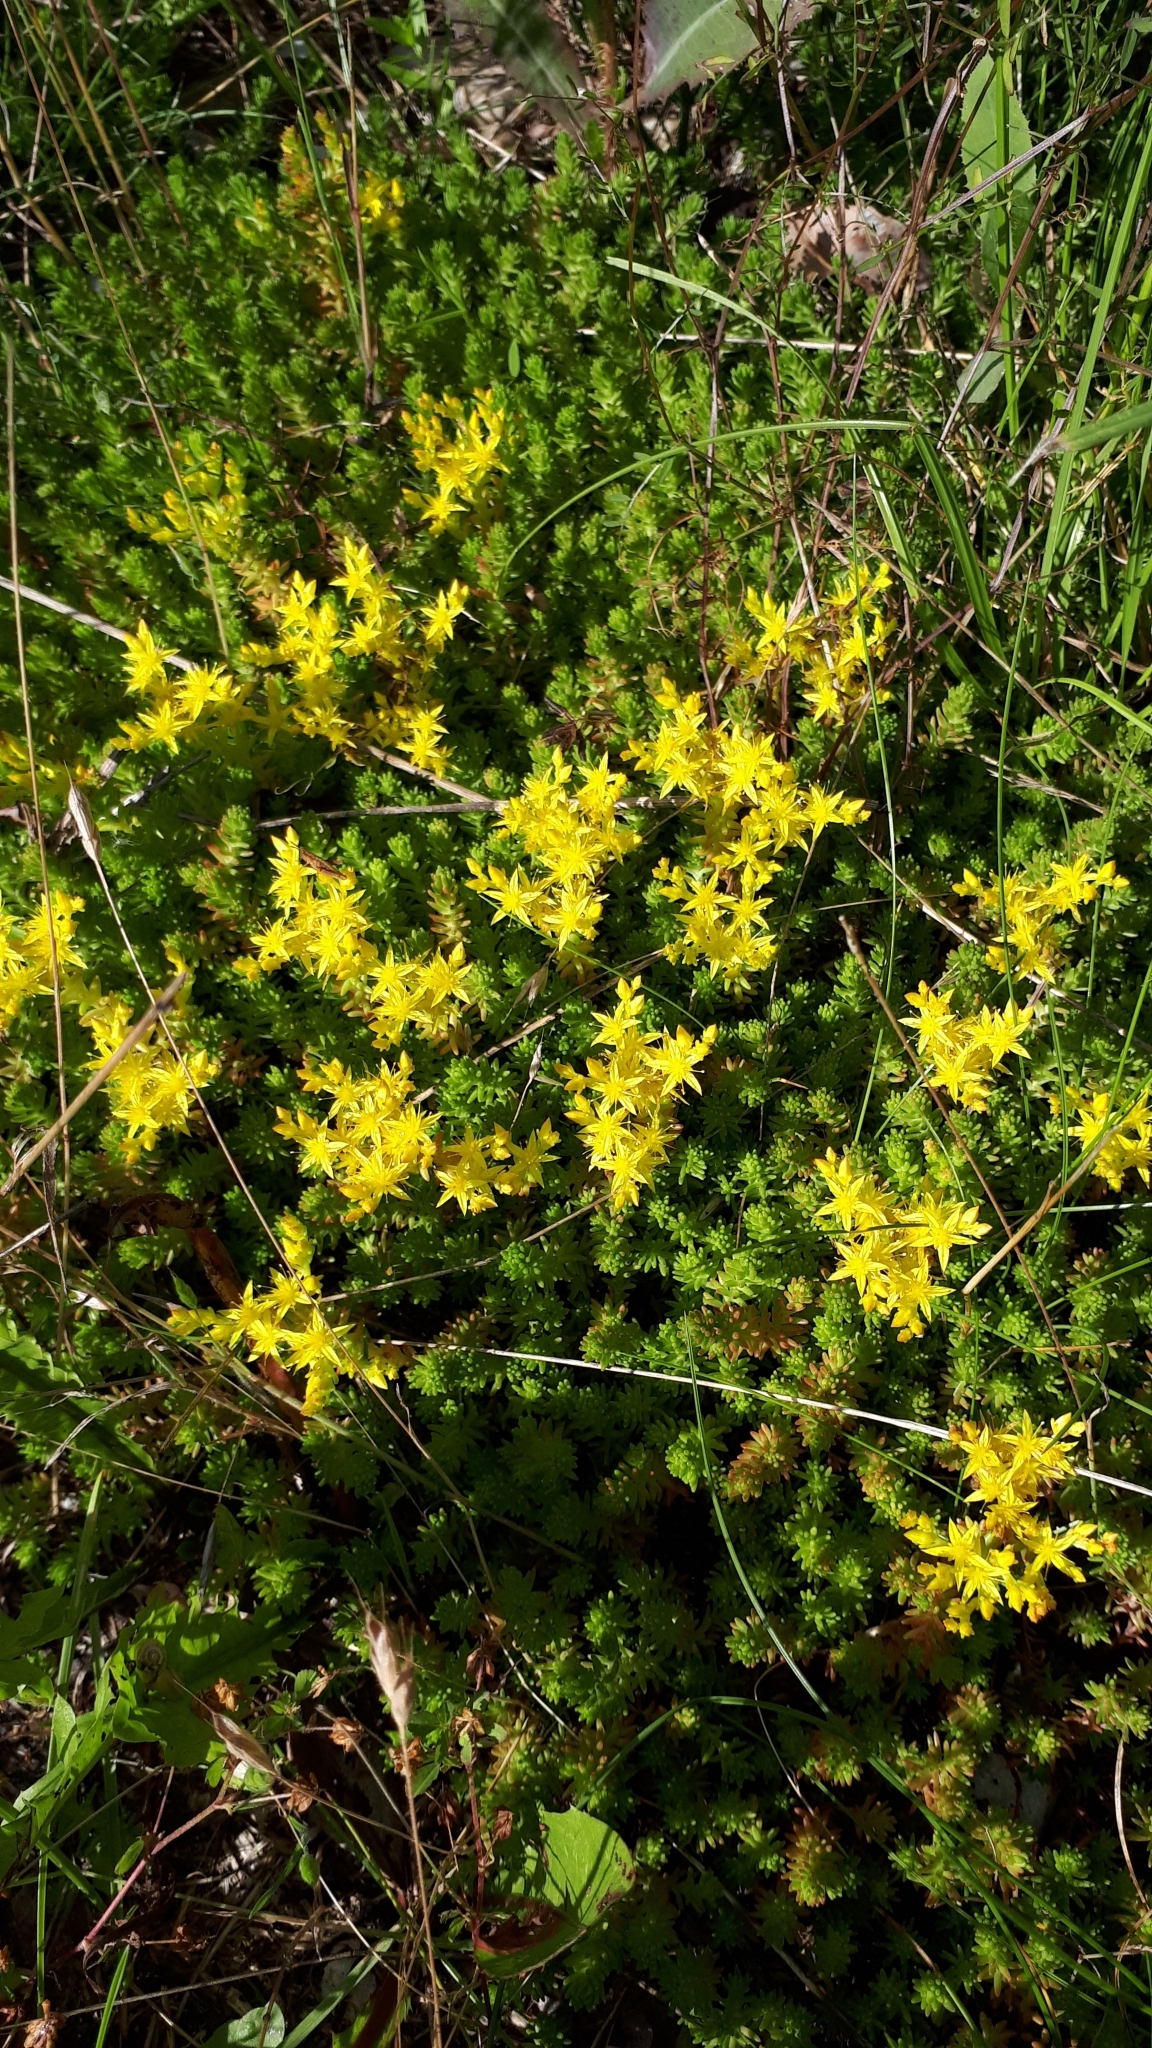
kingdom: Plantae
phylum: Tracheophyta
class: Magnoliopsida
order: Saxifragales
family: Crassulaceae
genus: Sedum
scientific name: Sedum sexangulare
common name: Tasteless stonecrop
